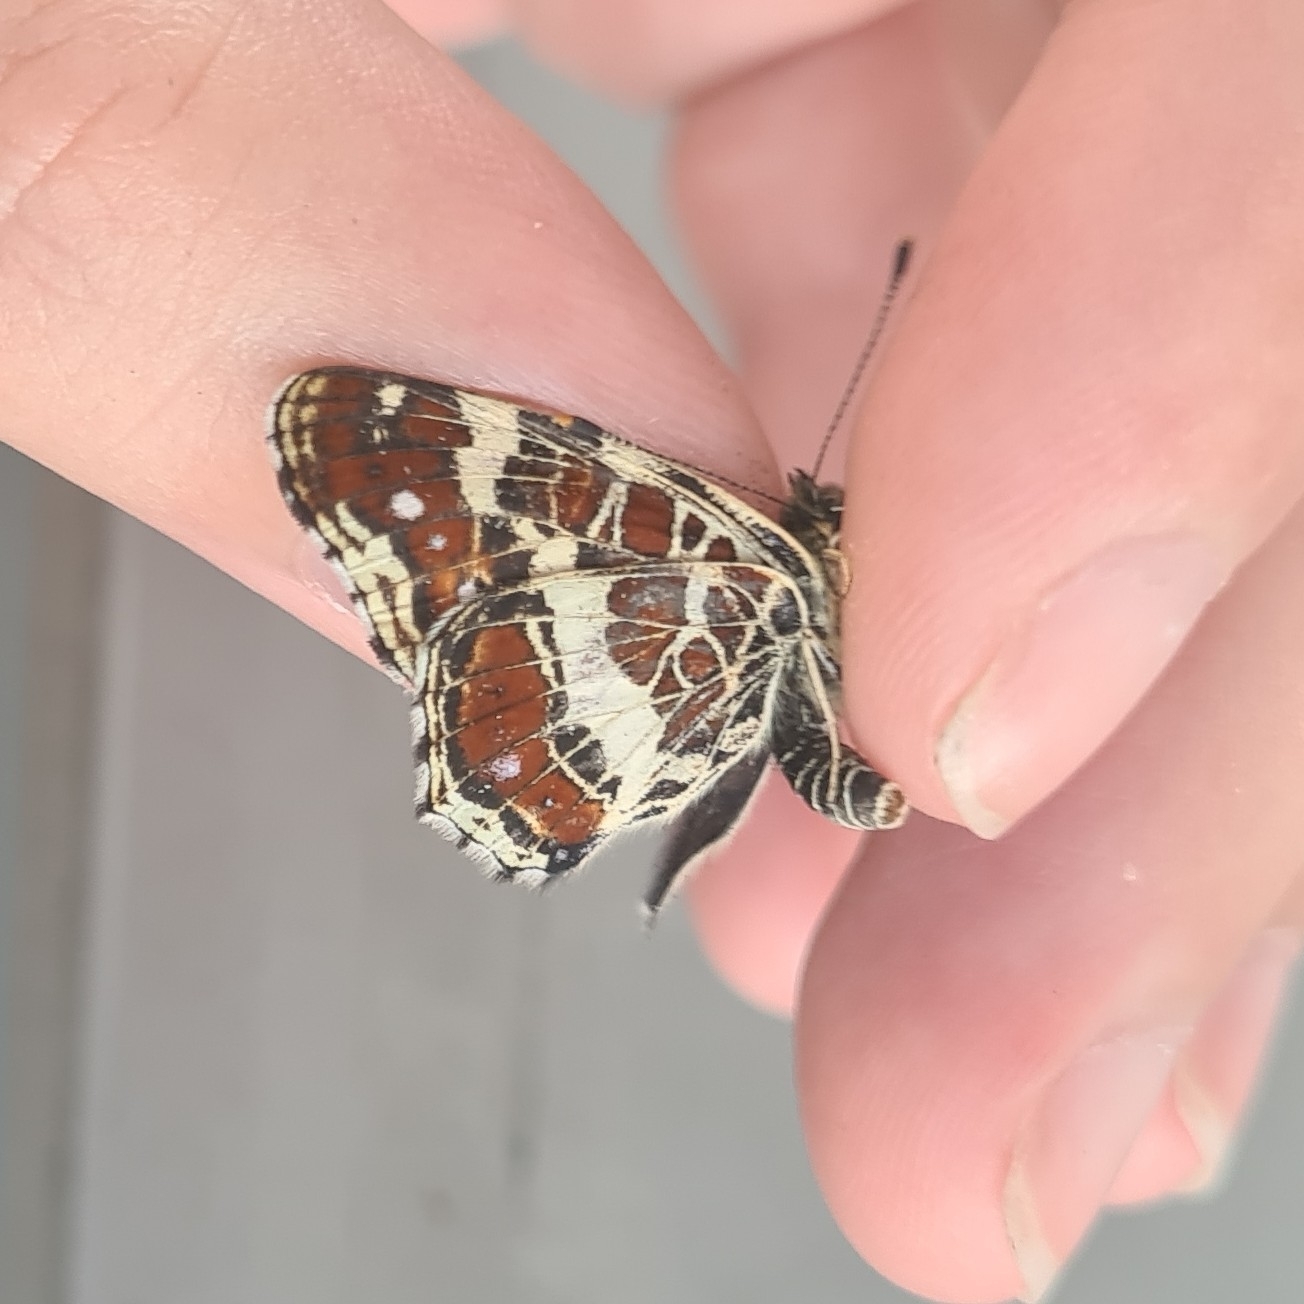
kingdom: Animalia
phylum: Arthropoda
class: Insecta
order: Lepidoptera
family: Nymphalidae
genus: Araschnia
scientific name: Araschnia levana
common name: Map butterfly
